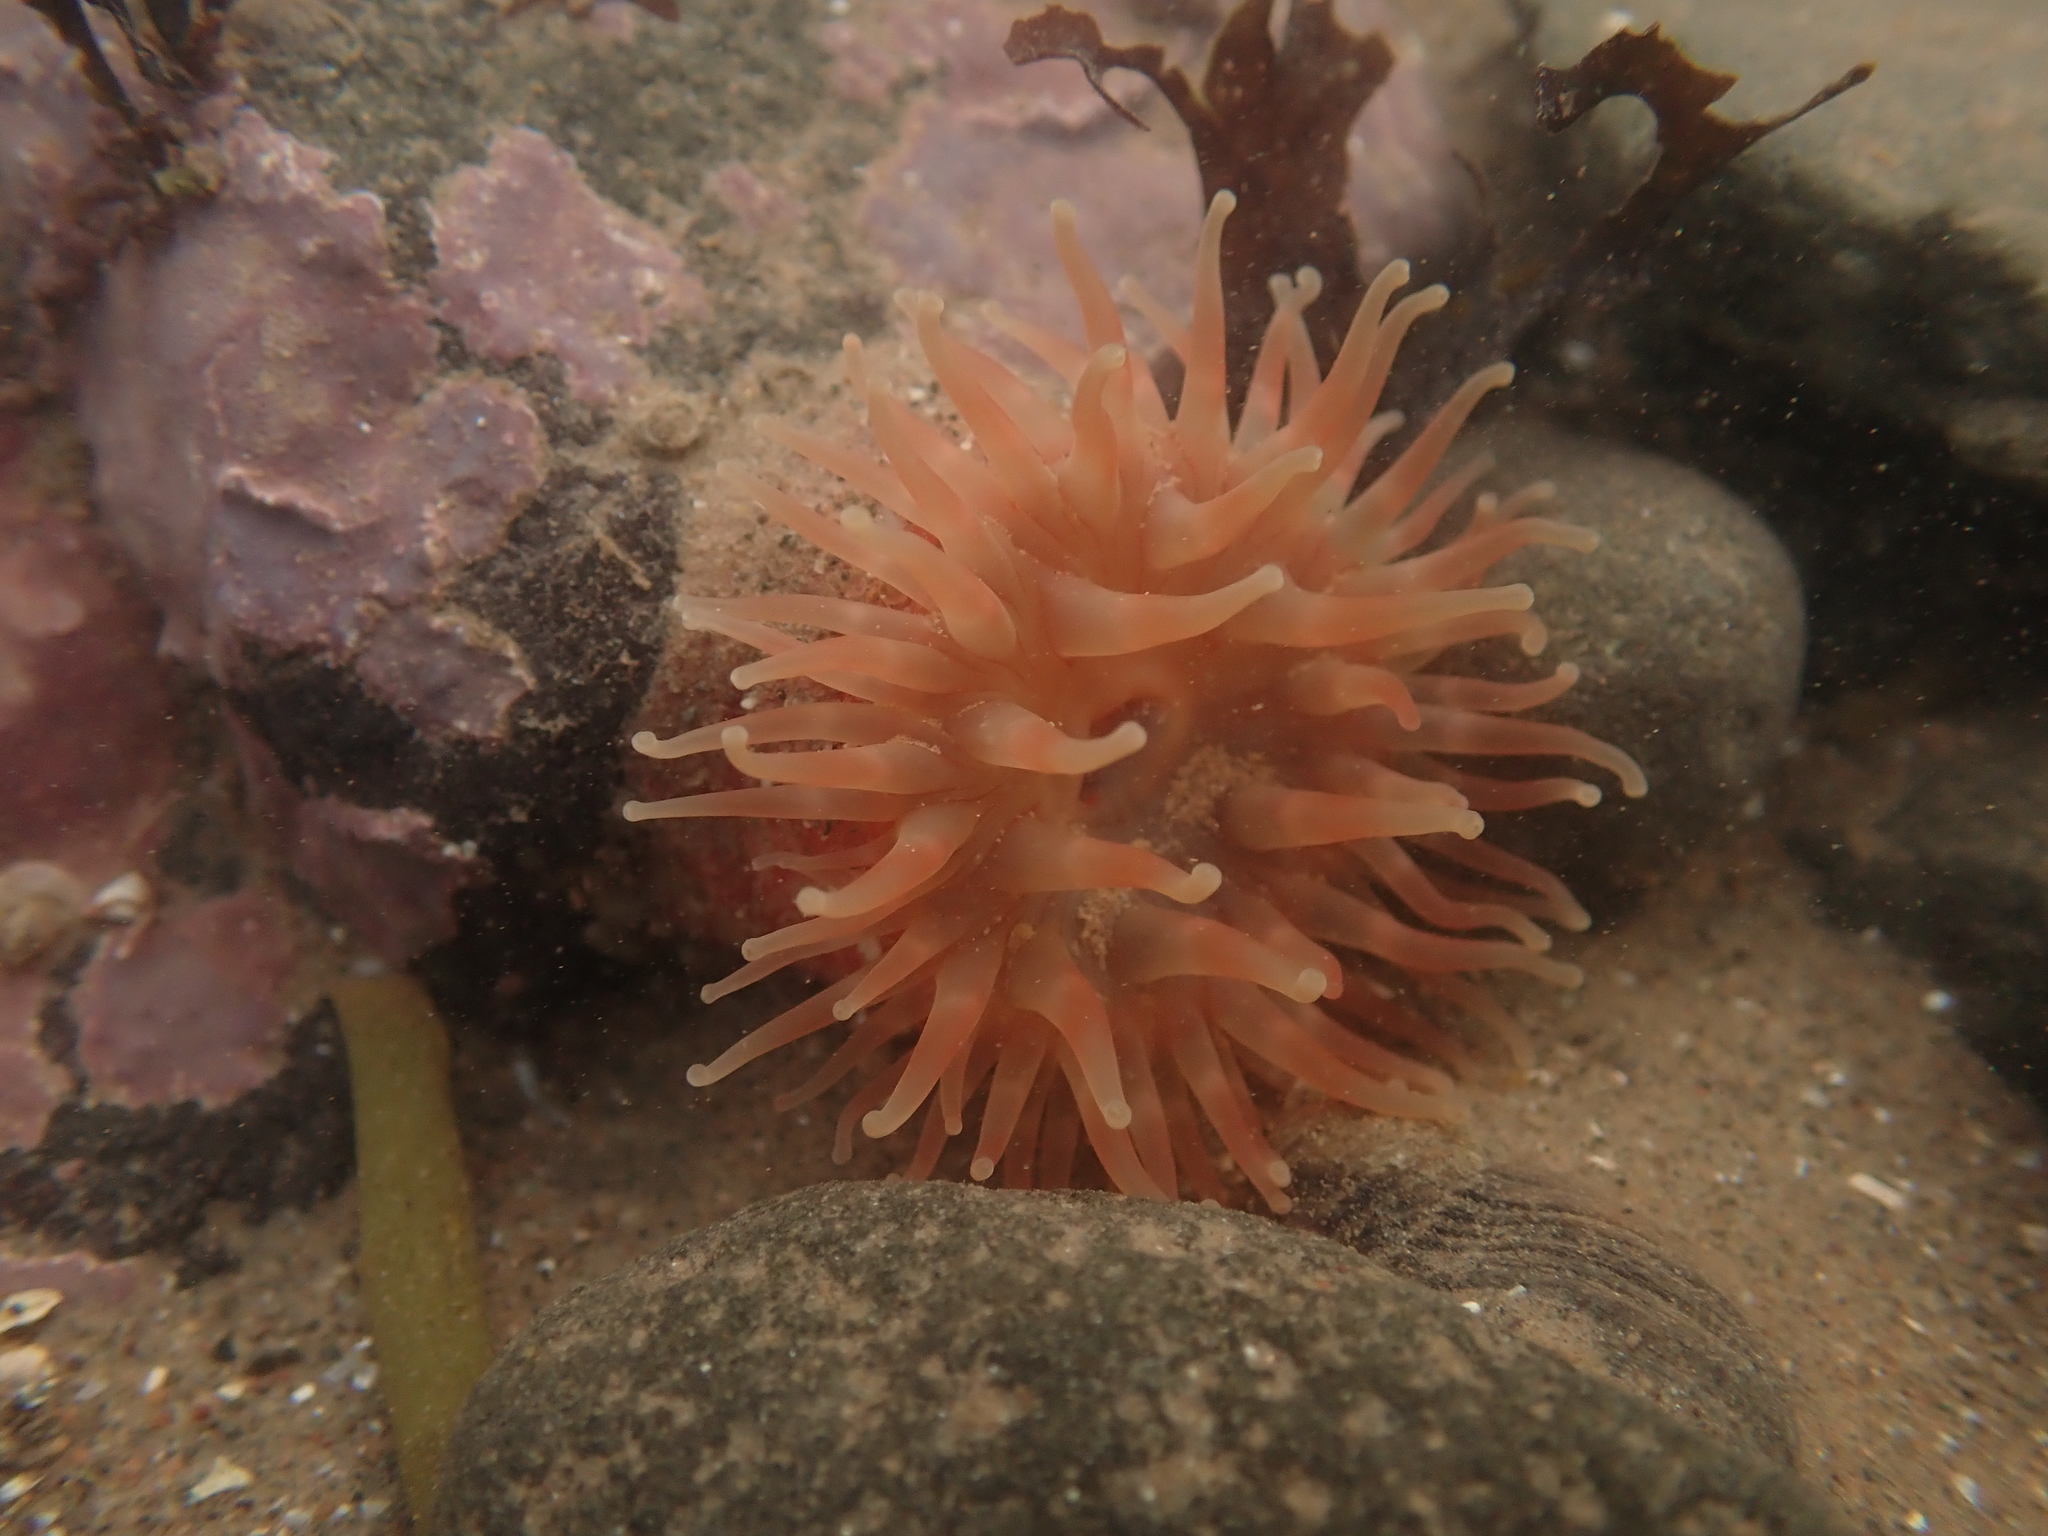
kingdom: Animalia
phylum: Cnidaria
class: Anthozoa
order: Actiniaria
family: Actiniidae
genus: Urticina
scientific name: Urticina crassicornis
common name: Mottled anemone
